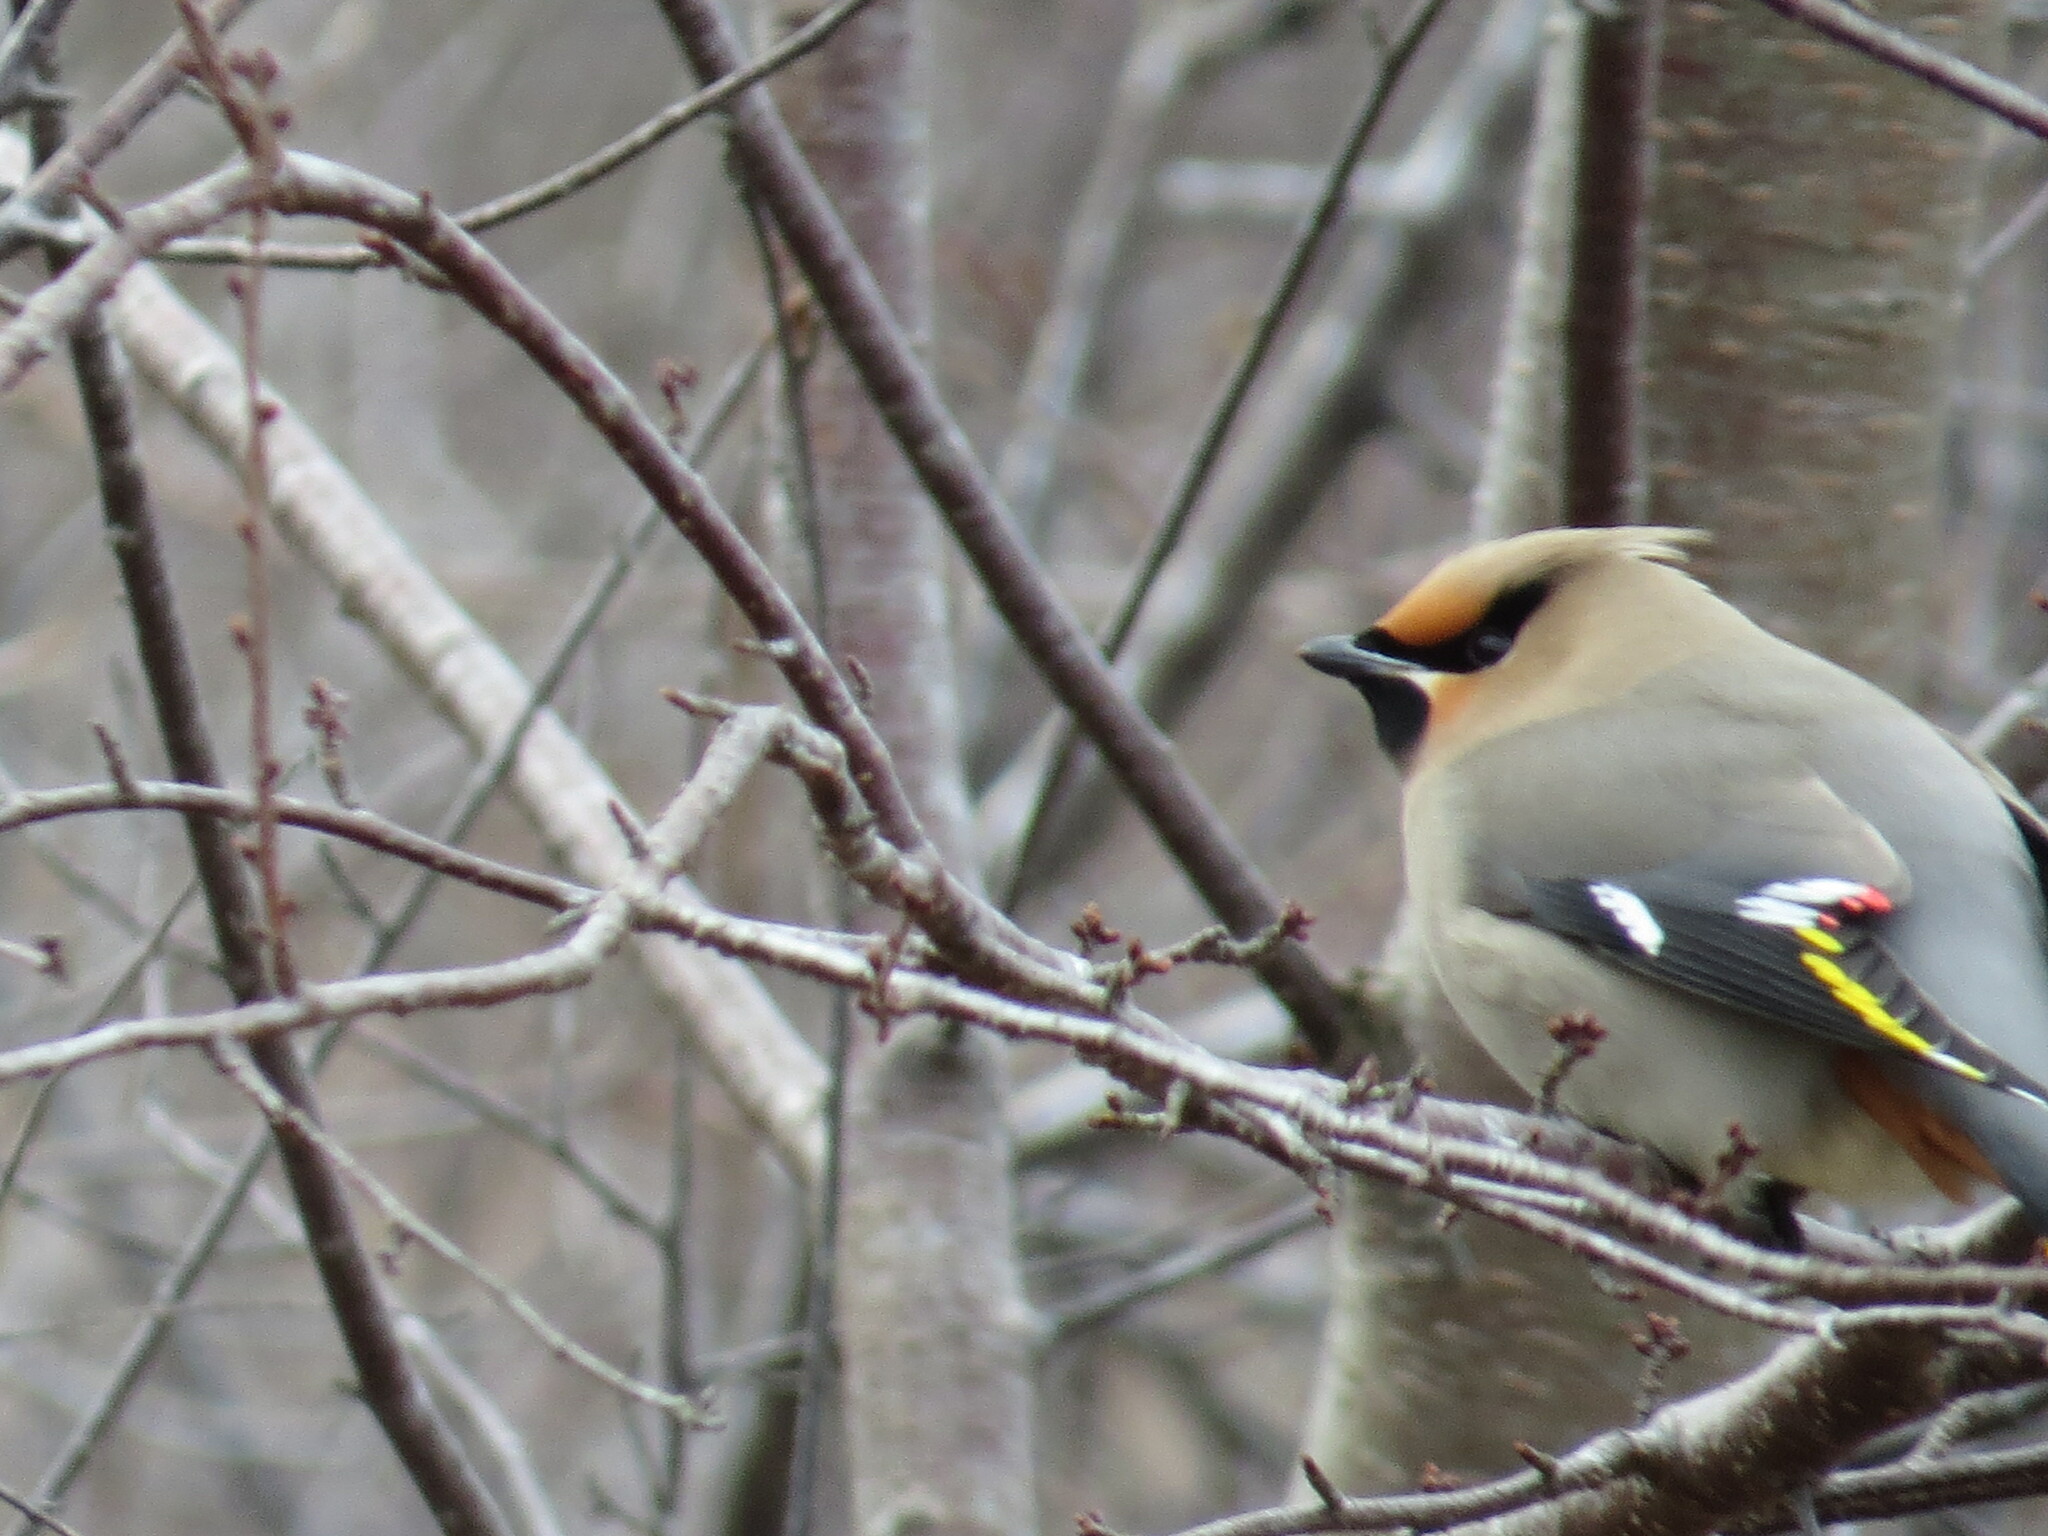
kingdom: Animalia
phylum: Chordata
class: Aves
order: Passeriformes
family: Bombycillidae
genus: Bombycilla
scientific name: Bombycilla garrulus
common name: Bohemian waxwing
